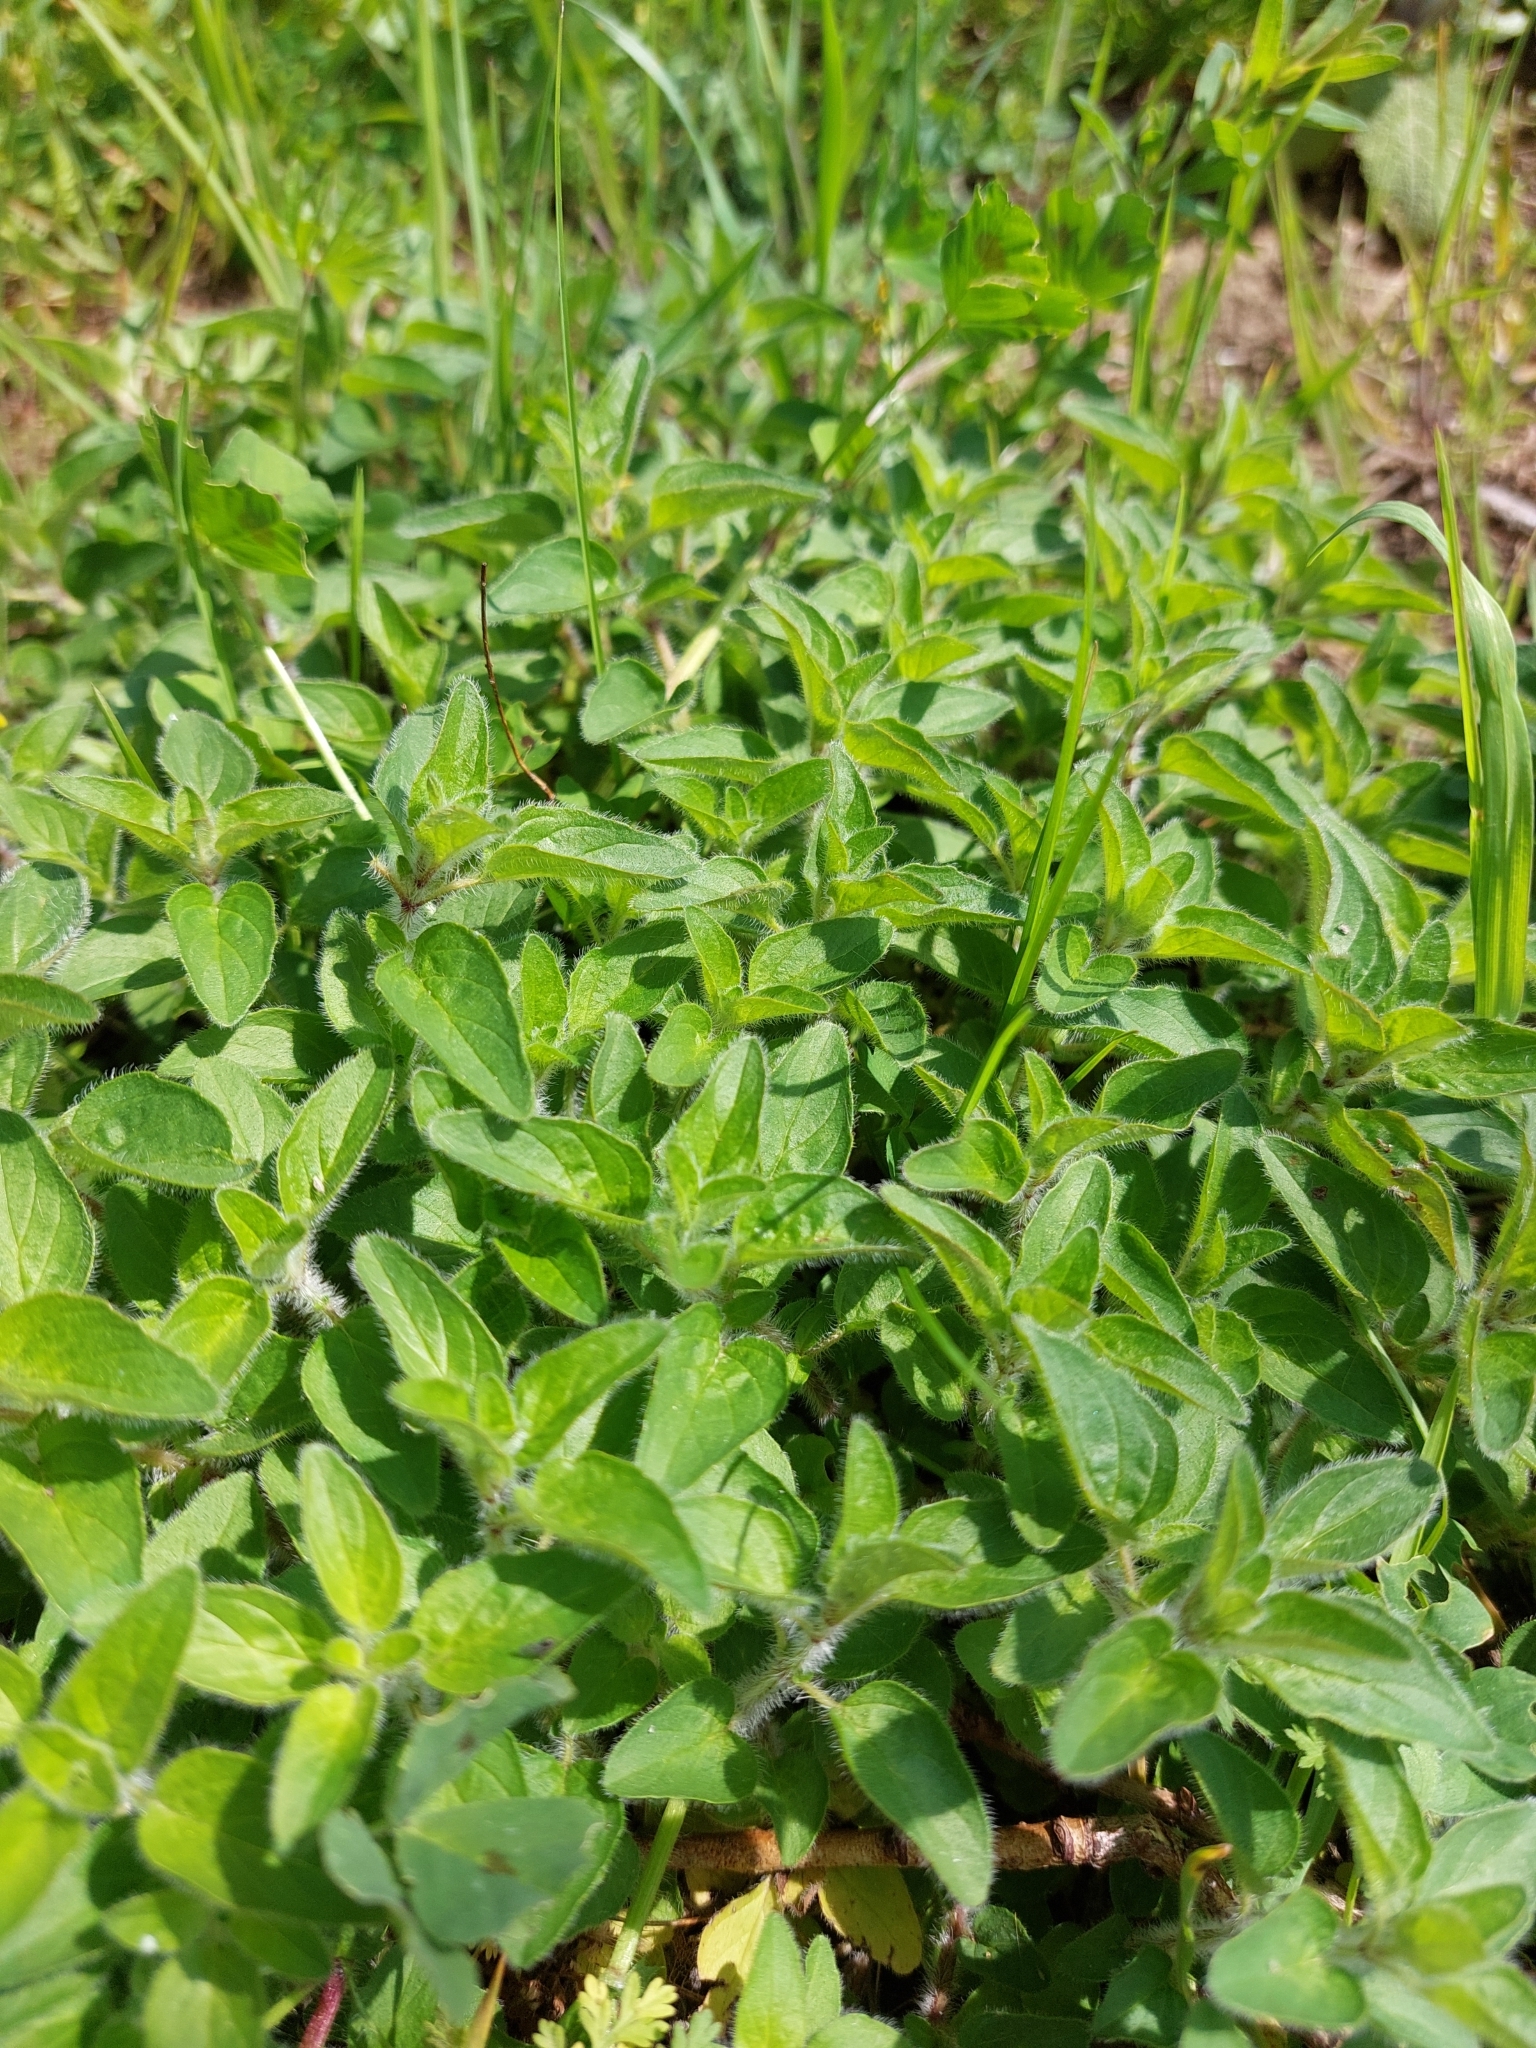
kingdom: Plantae
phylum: Tracheophyta
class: Magnoliopsida
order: Lamiales
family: Lamiaceae
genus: Origanum
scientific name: Origanum vulgare
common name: Wild marjoram
